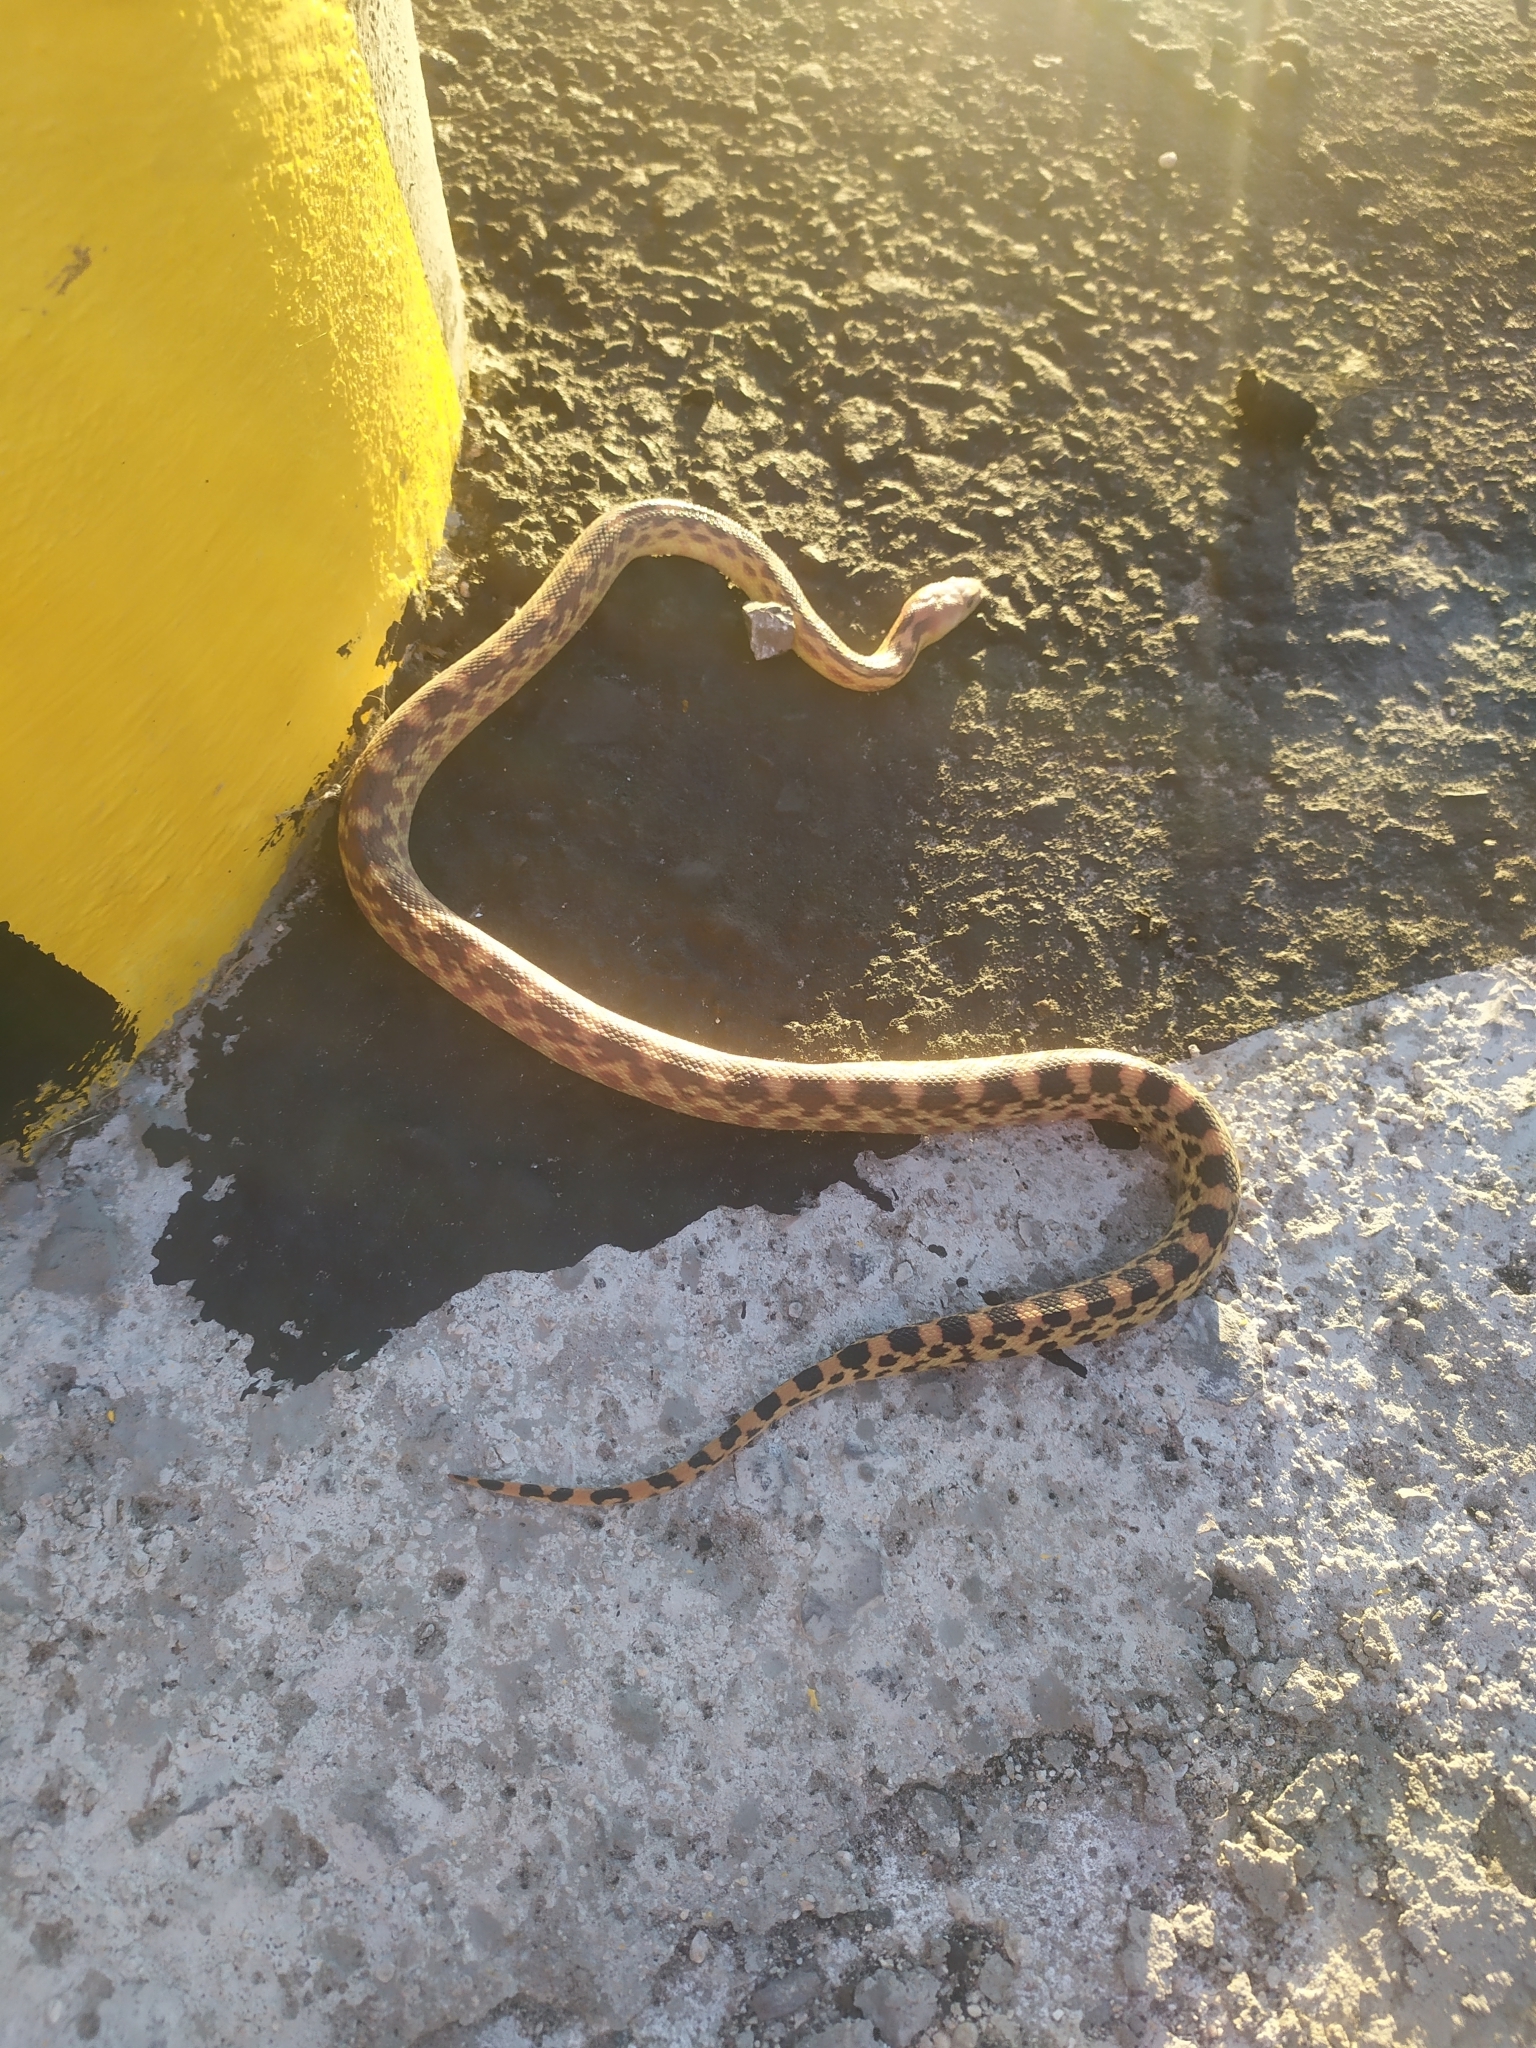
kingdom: Animalia
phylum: Chordata
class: Squamata
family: Colubridae
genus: Pituophis
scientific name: Pituophis vertebralis
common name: Cape gopher snake
